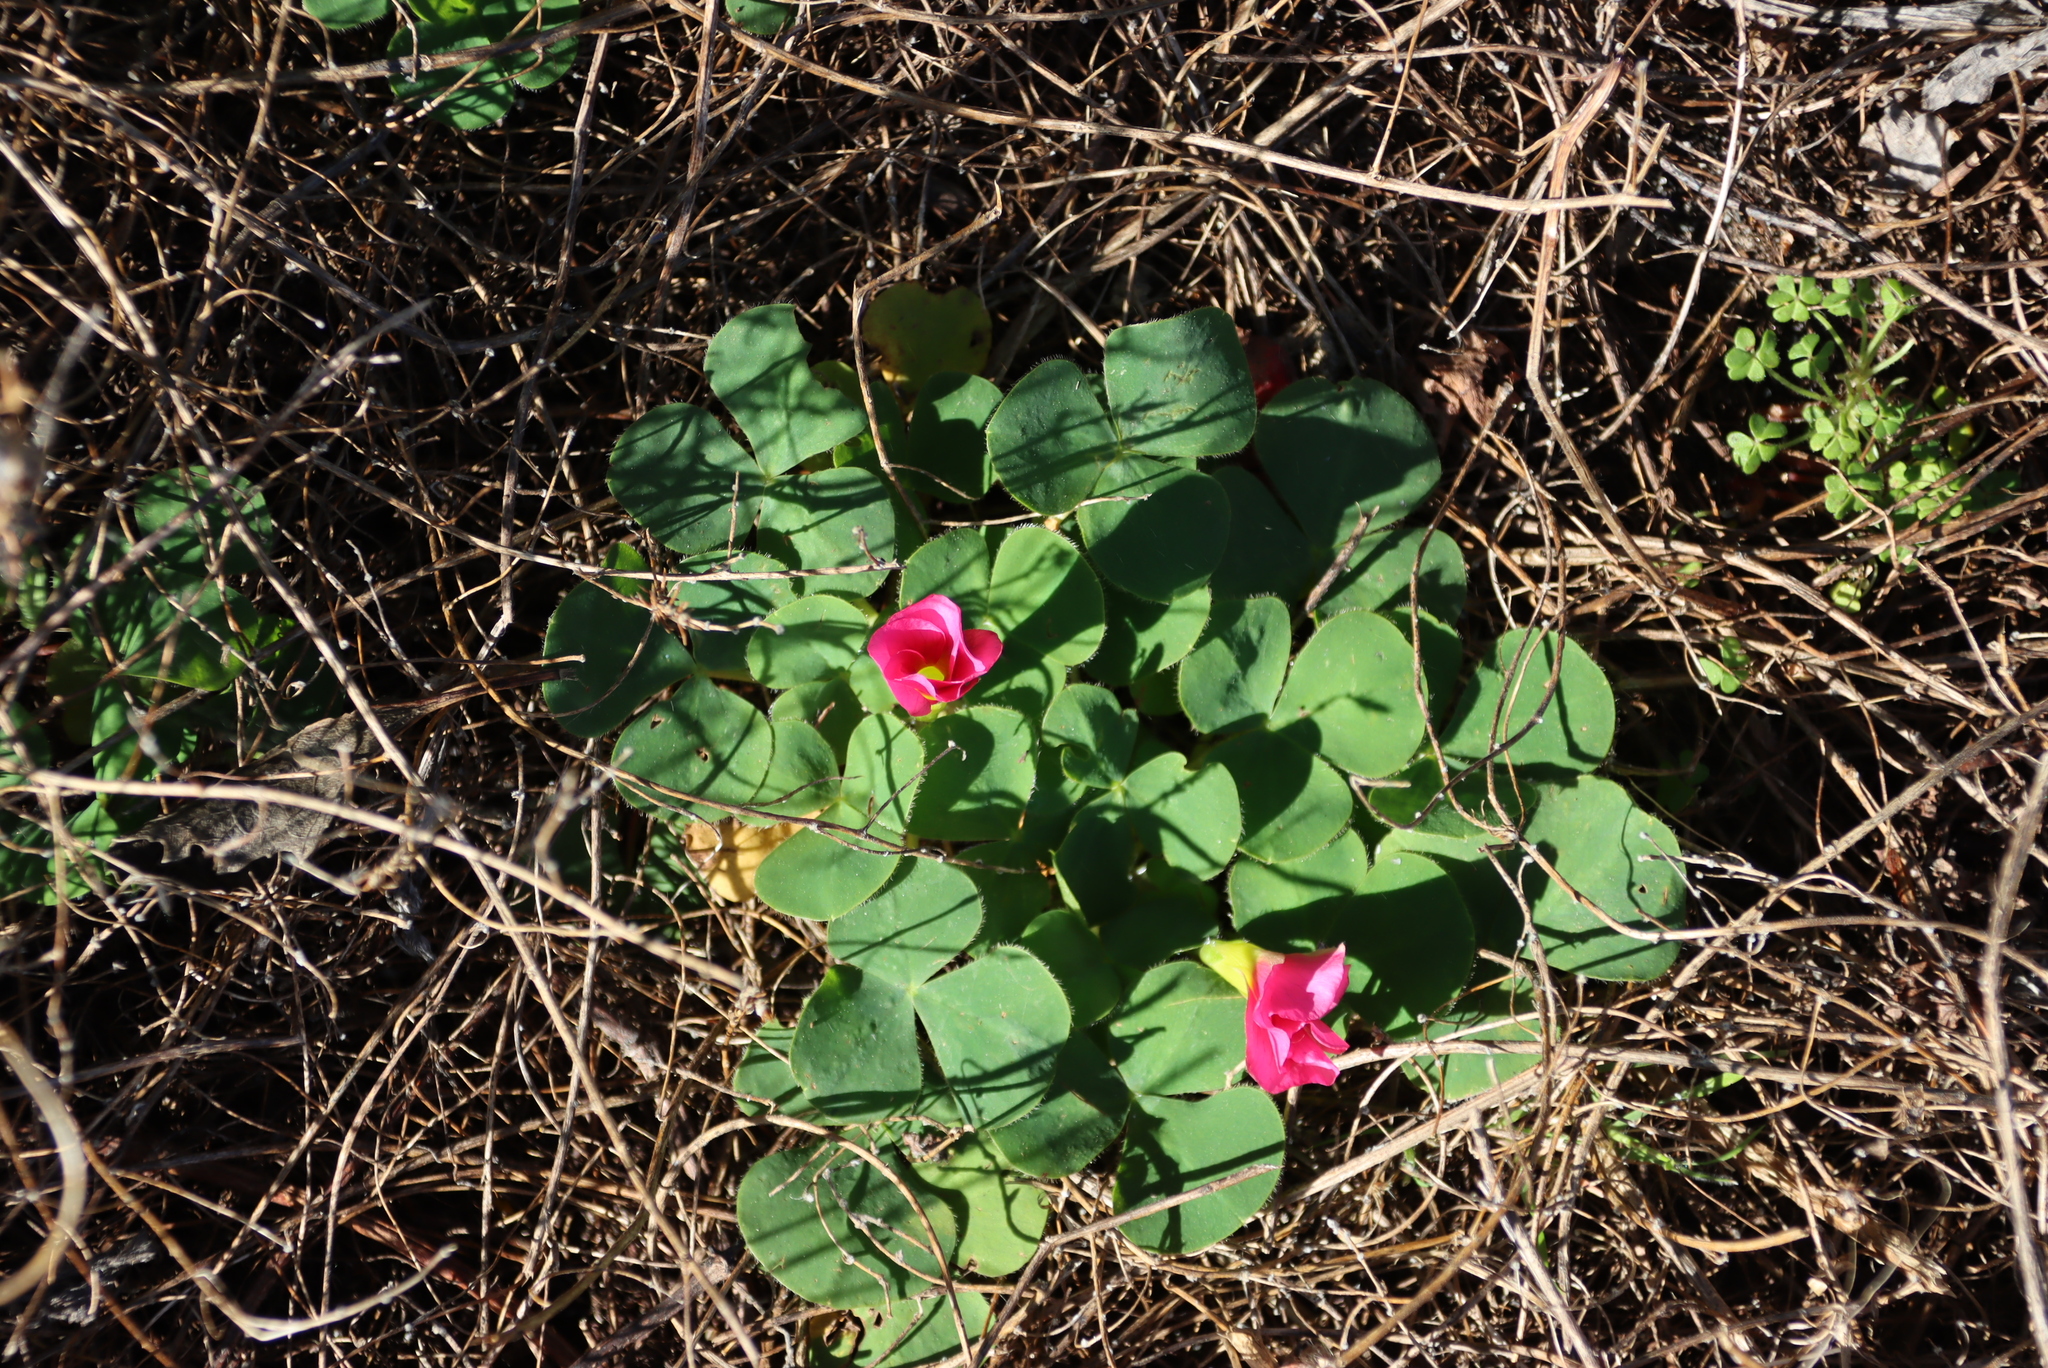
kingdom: Plantae
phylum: Tracheophyta
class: Magnoliopsida
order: Oxalidales
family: Oxalidaceae
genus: Oxalis
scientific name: Oxalis purpurea
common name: Purple woodsorrel
